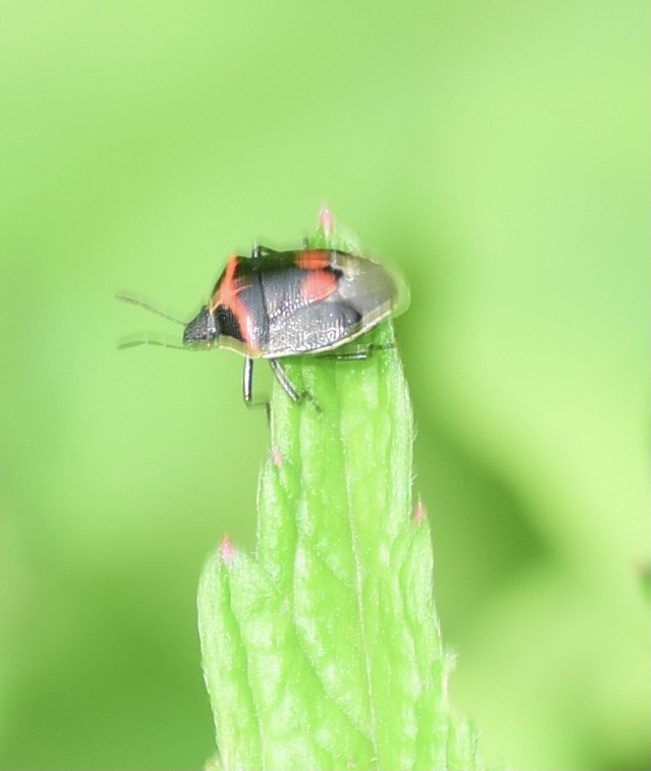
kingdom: Animalia
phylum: Arthropoda
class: Insecta
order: Hemiptera
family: Pentatomidae
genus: Cosmopepla
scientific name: Cosmopepla lintneriana
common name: Twice-stabbed stink bug
